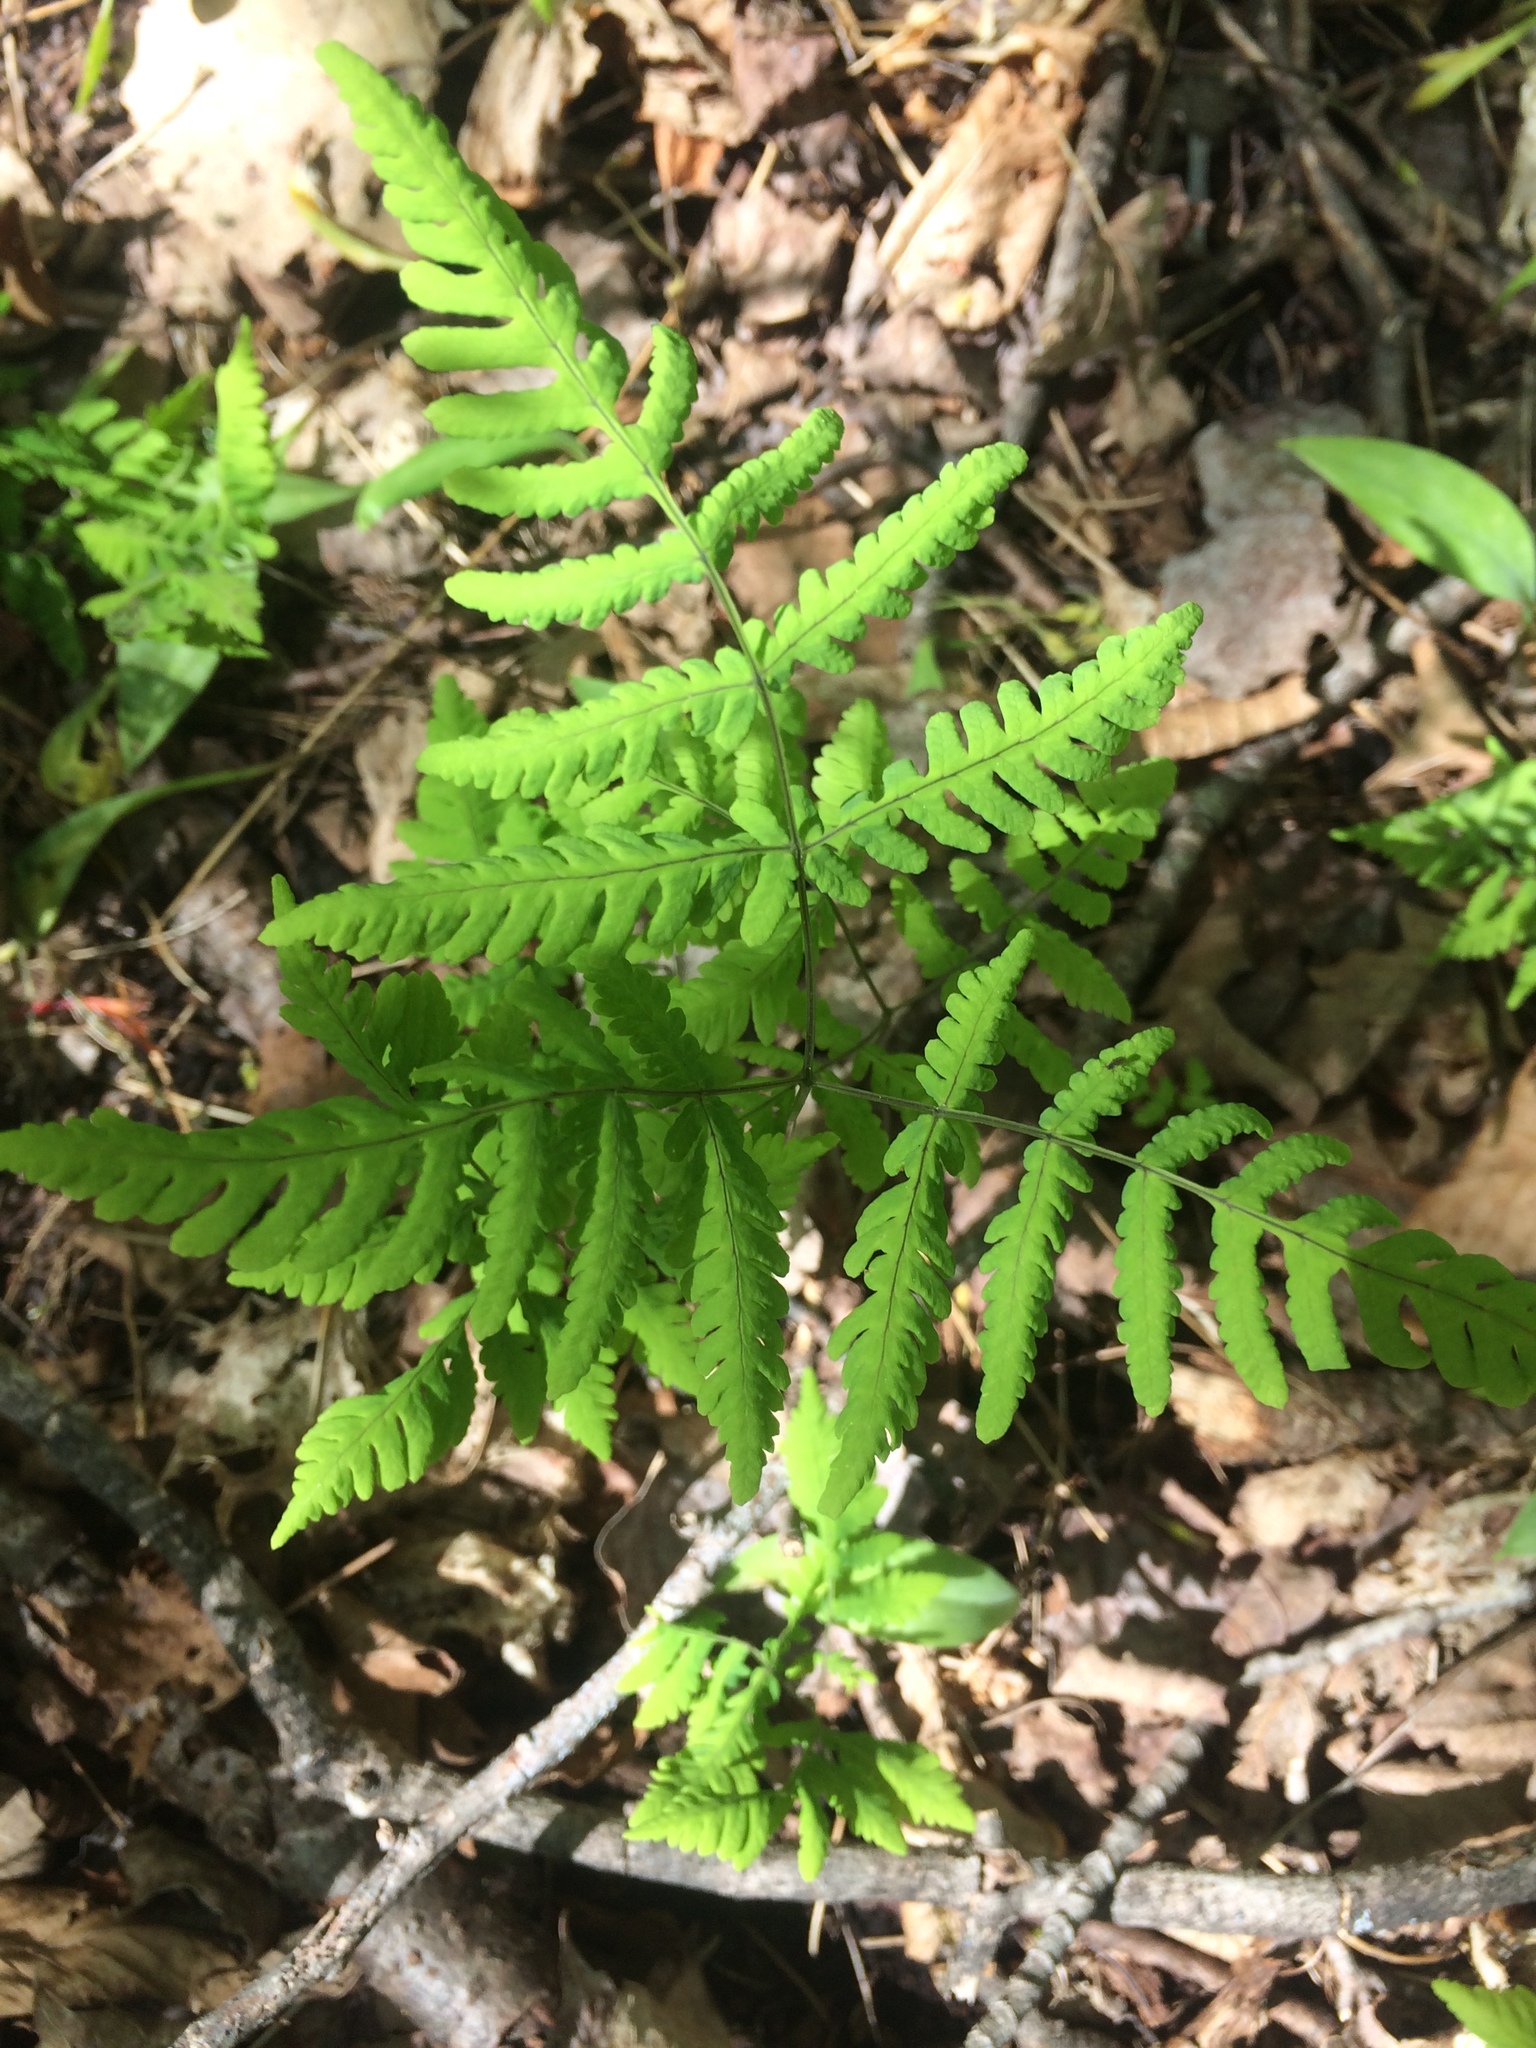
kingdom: Plantae
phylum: Tracheophyta
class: Polypodiopsida
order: Polypodiales
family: Cystopteridaceae
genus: Gymnocarpium
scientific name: Gymnocarpium dryopteris
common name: Oak fern
